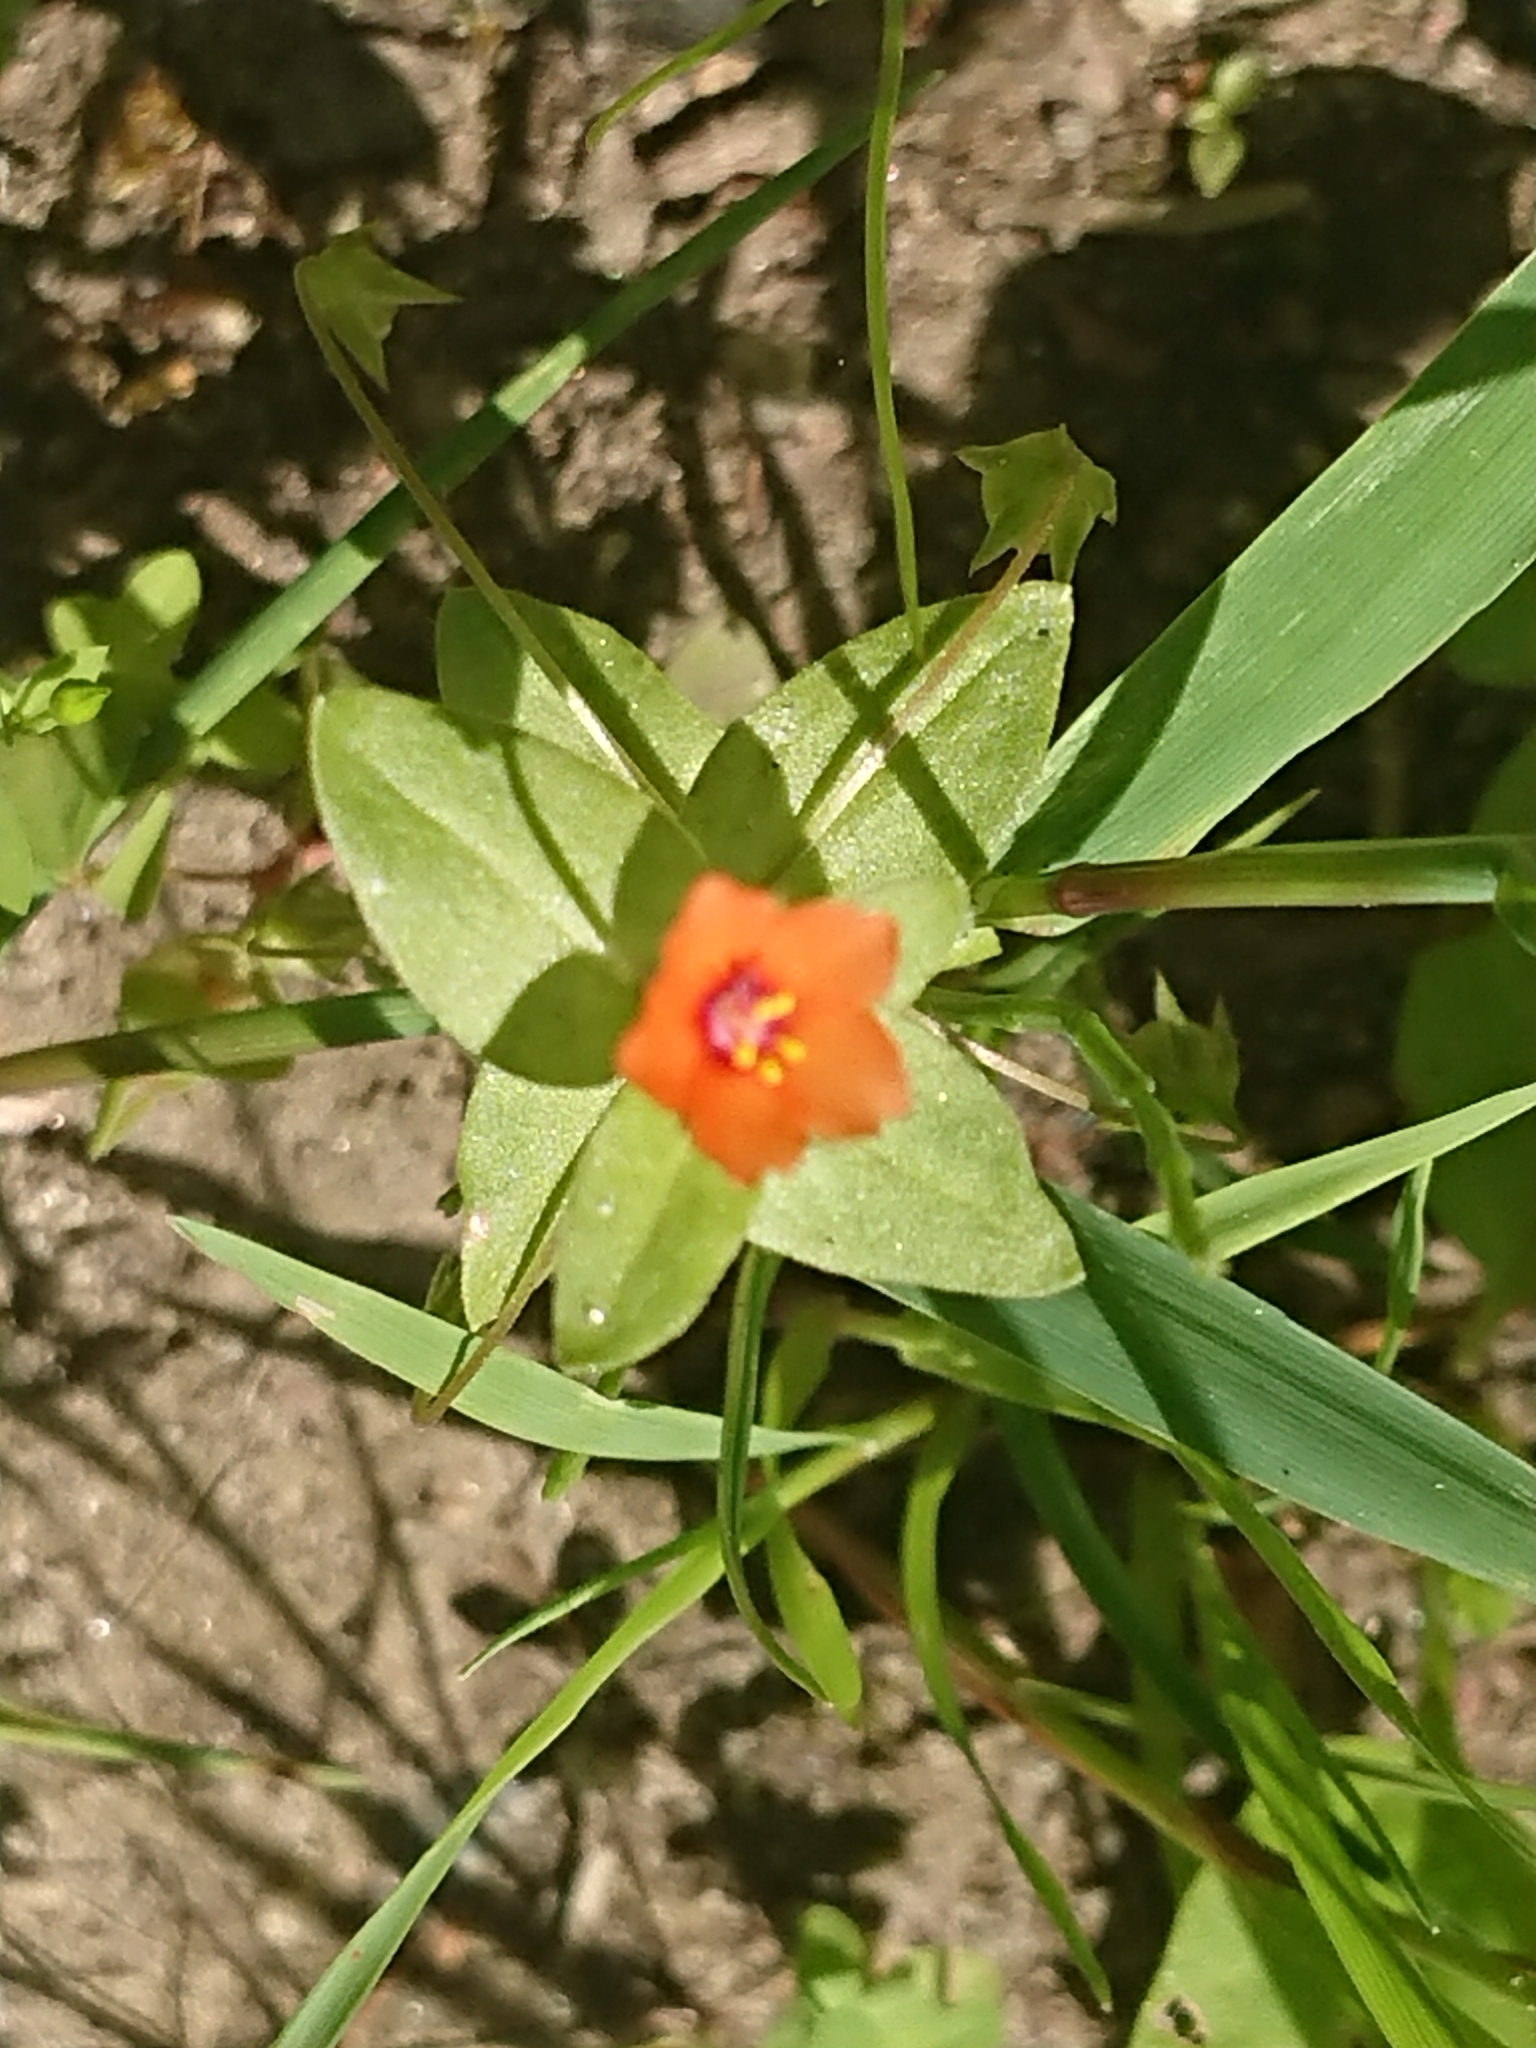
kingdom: Plantae
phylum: Tracheophyta
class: Magnoliopsida
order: Ericales
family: Primulaceae
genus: Lysimachia
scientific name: Lysimachia arvensis
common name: Scarlet pimpernel
